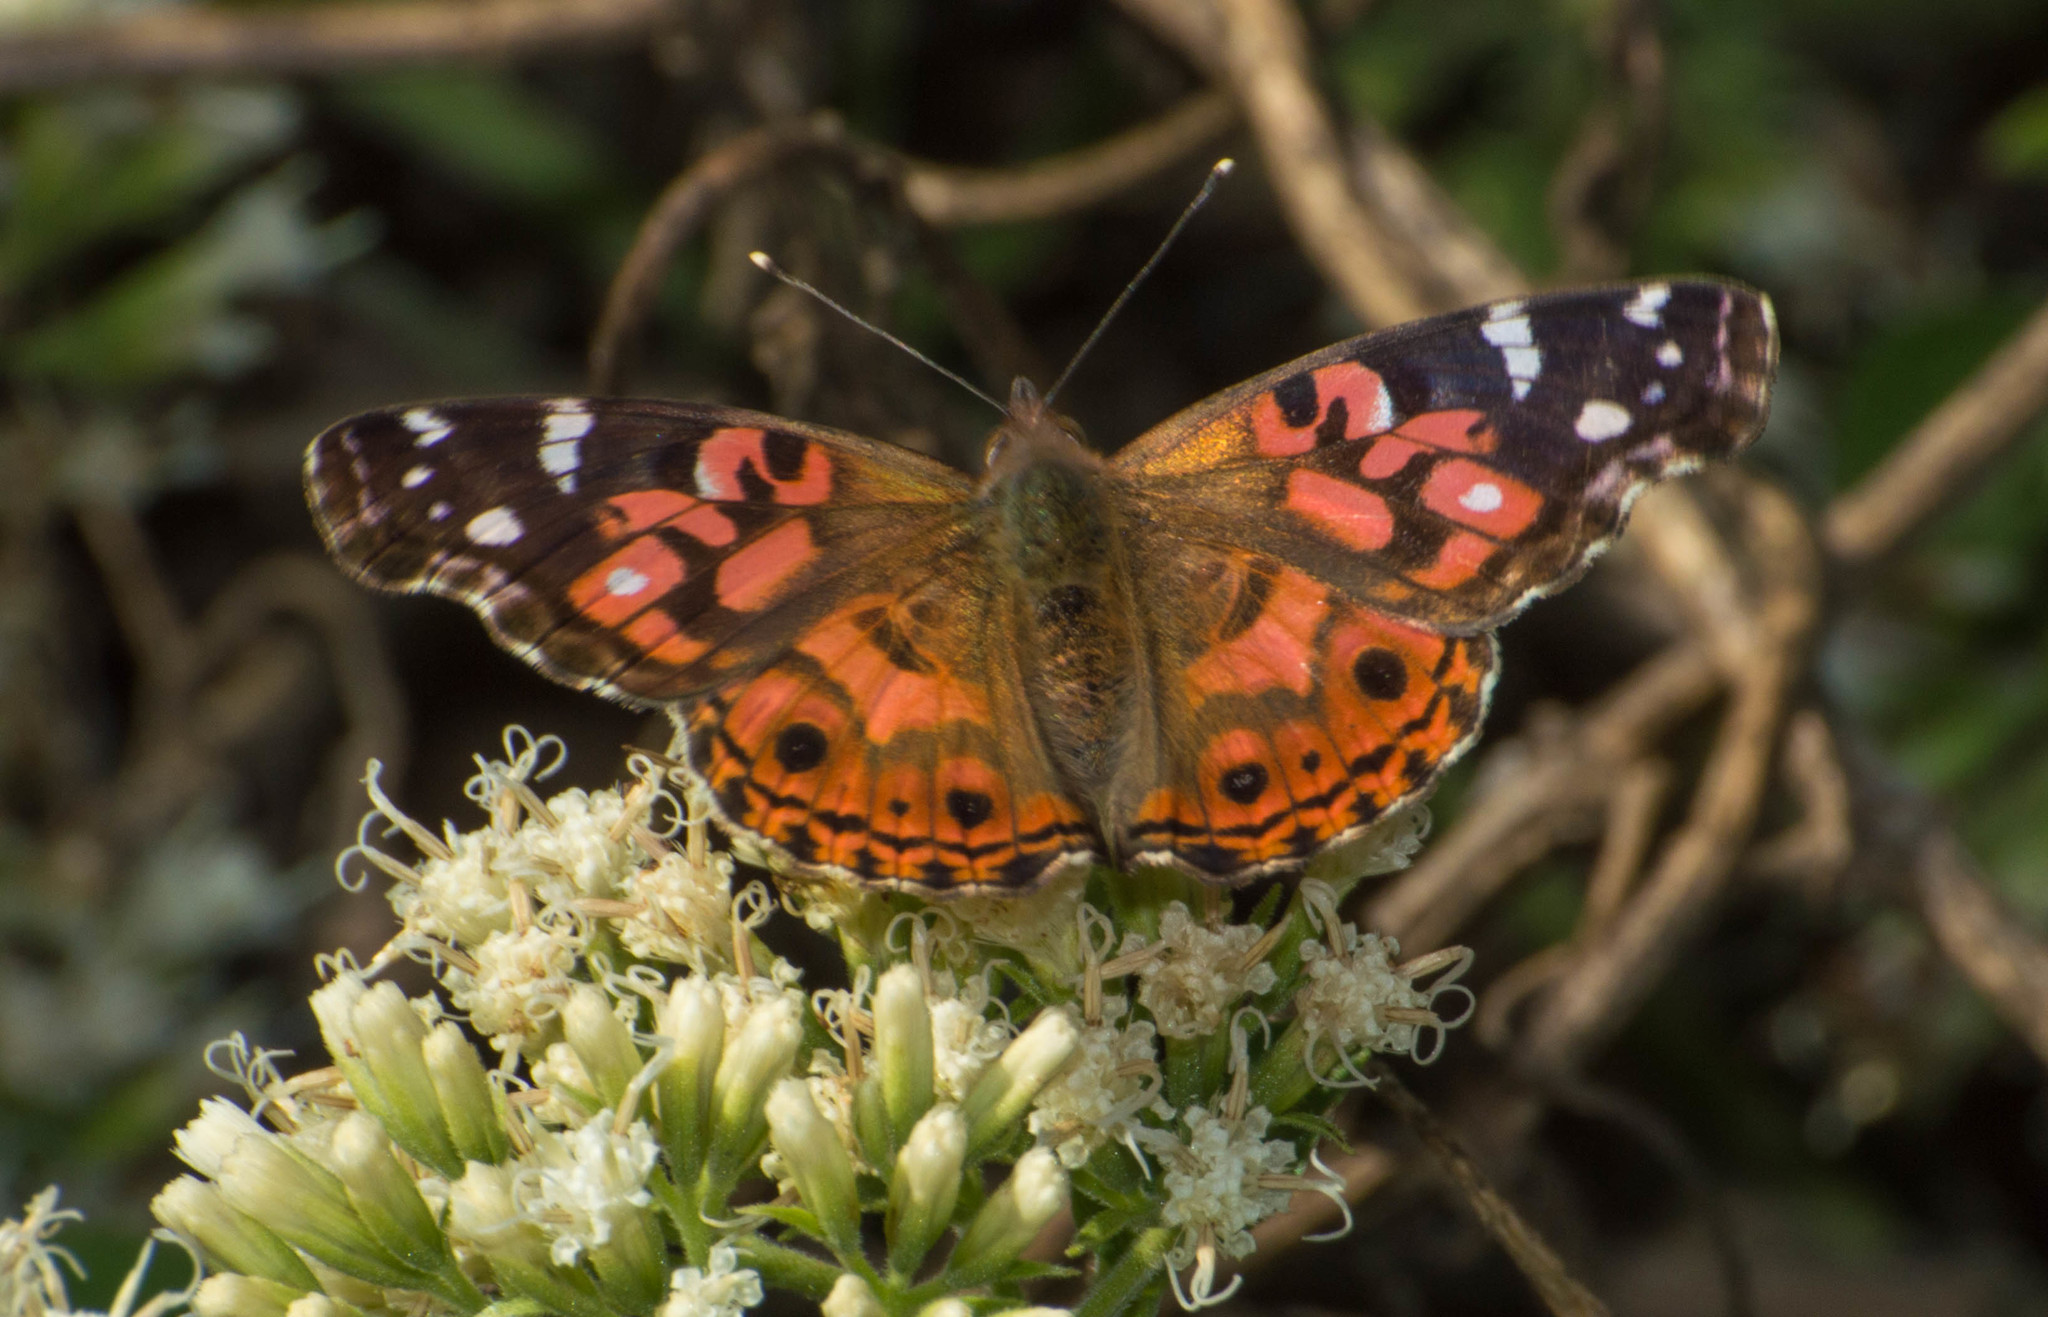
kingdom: Animalia
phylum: Arthropoda
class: Insecta
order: Lepidoptera
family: Nymphalidae
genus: Vanessa
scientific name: Vanessa braziliensis
